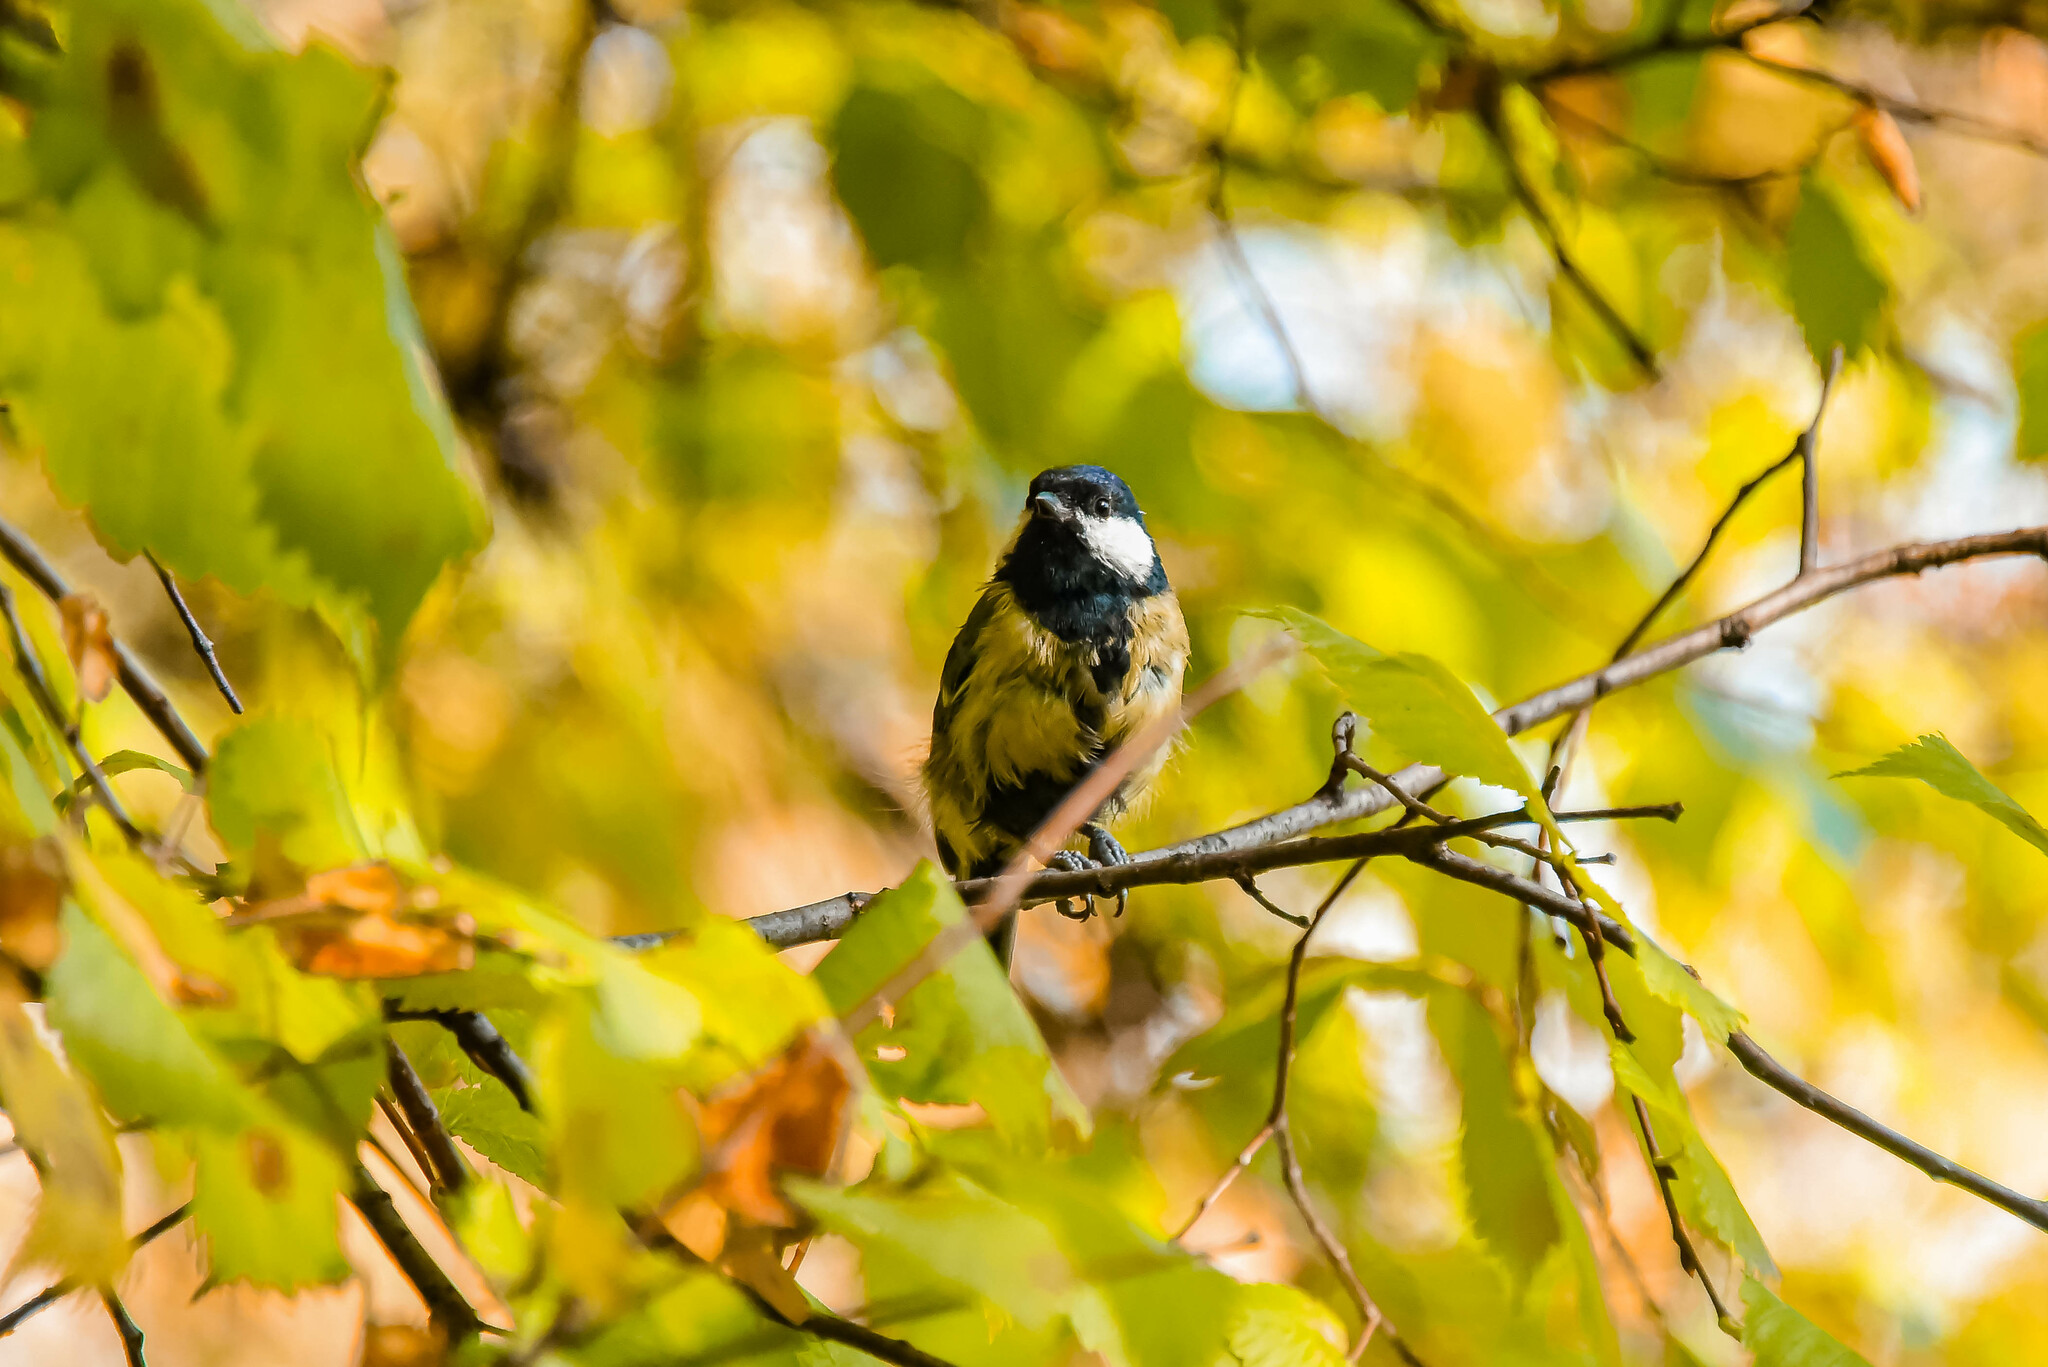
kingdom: Animalia
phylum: Chordata
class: Aves
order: Passeriformes
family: Paridae
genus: Parus
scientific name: Parus major
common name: Great tit
